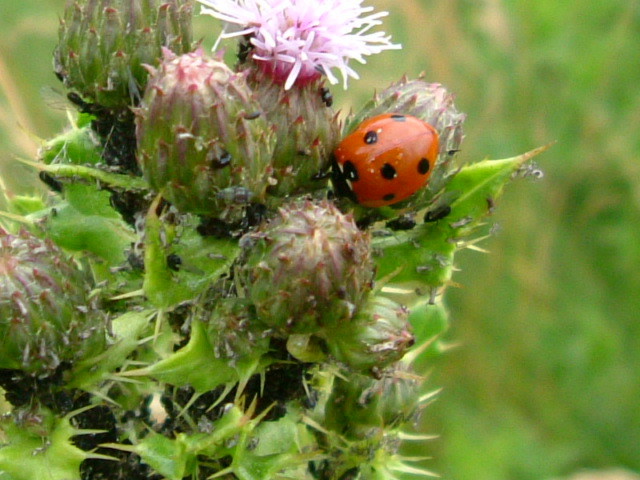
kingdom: Animalia
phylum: Arthropoda
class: Insecta
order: Coleoptera
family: Coccinellidae
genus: Coccinella
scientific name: Coccinella septempunctata
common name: Sevenspotted lady beetle
